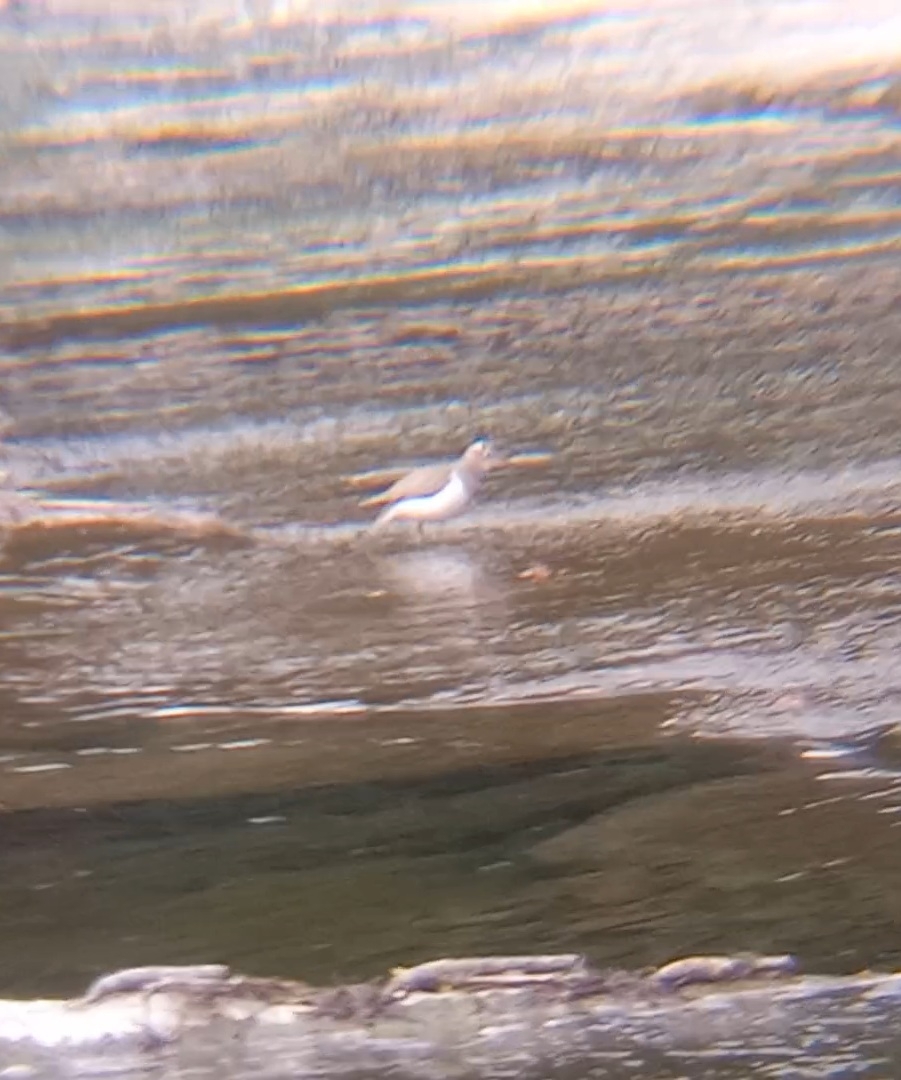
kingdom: Animalia
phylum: Chordata
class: Aves
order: Charadriiformes
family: Scolopacidae
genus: Actitis
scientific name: Actitis macularius
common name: Spotted sandpiper
